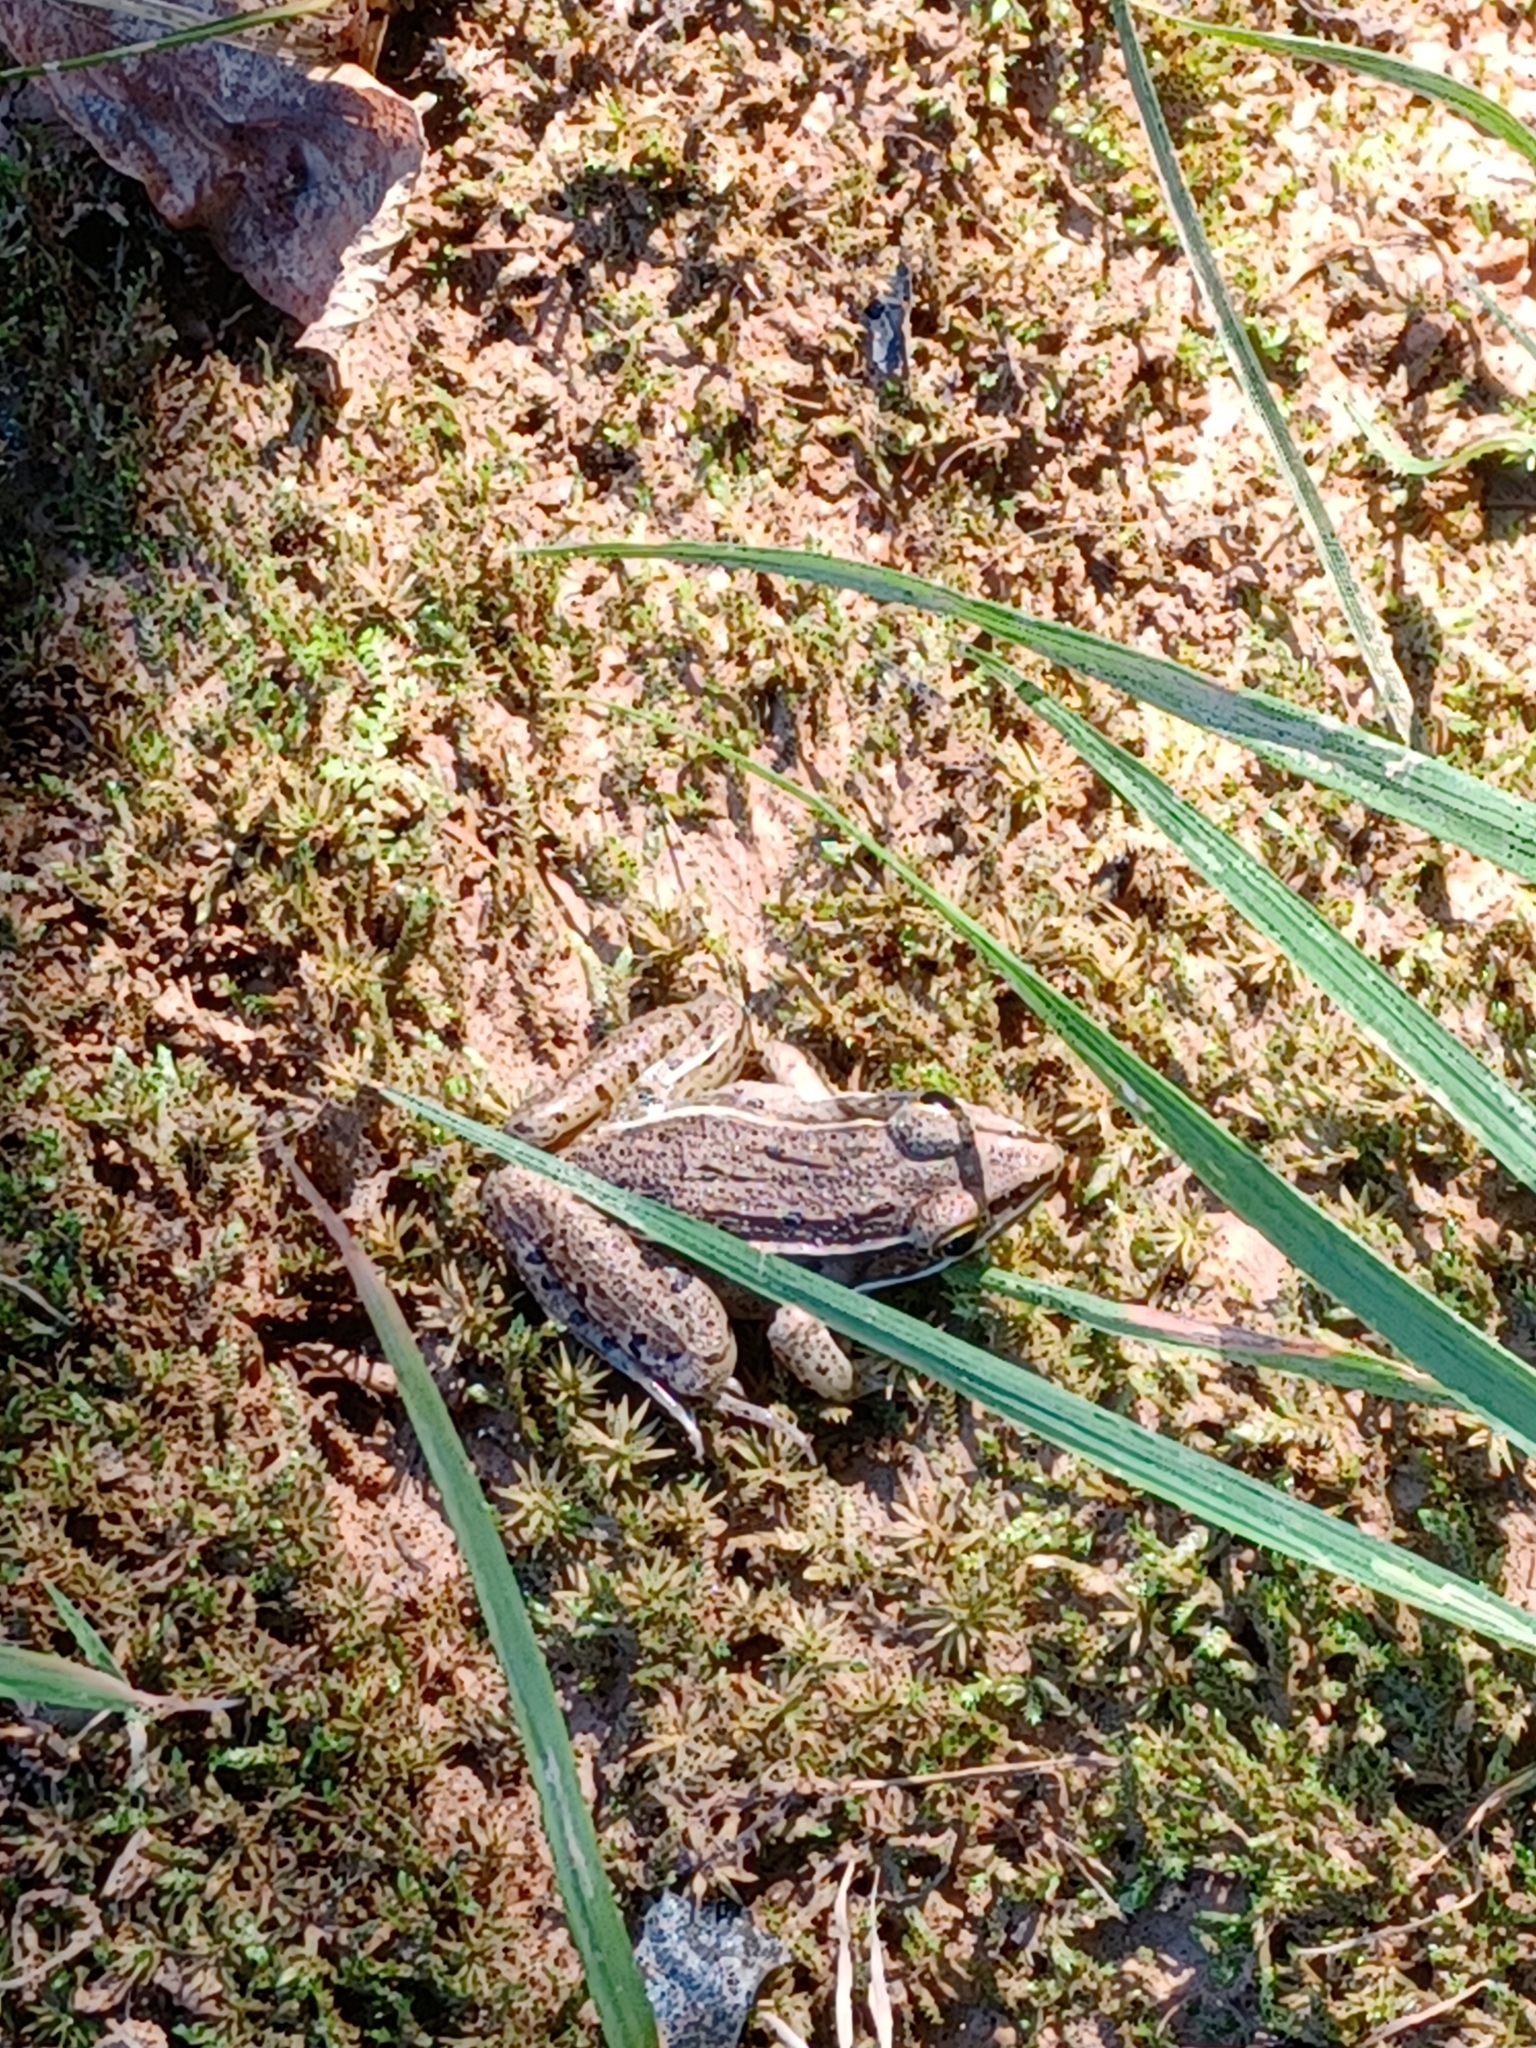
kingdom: Animalia
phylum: Chordata
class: Amphibia
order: Anura
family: Ranidae
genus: Lithobates
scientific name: Lithobates sphenocephalus
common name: Southern leopard frog
